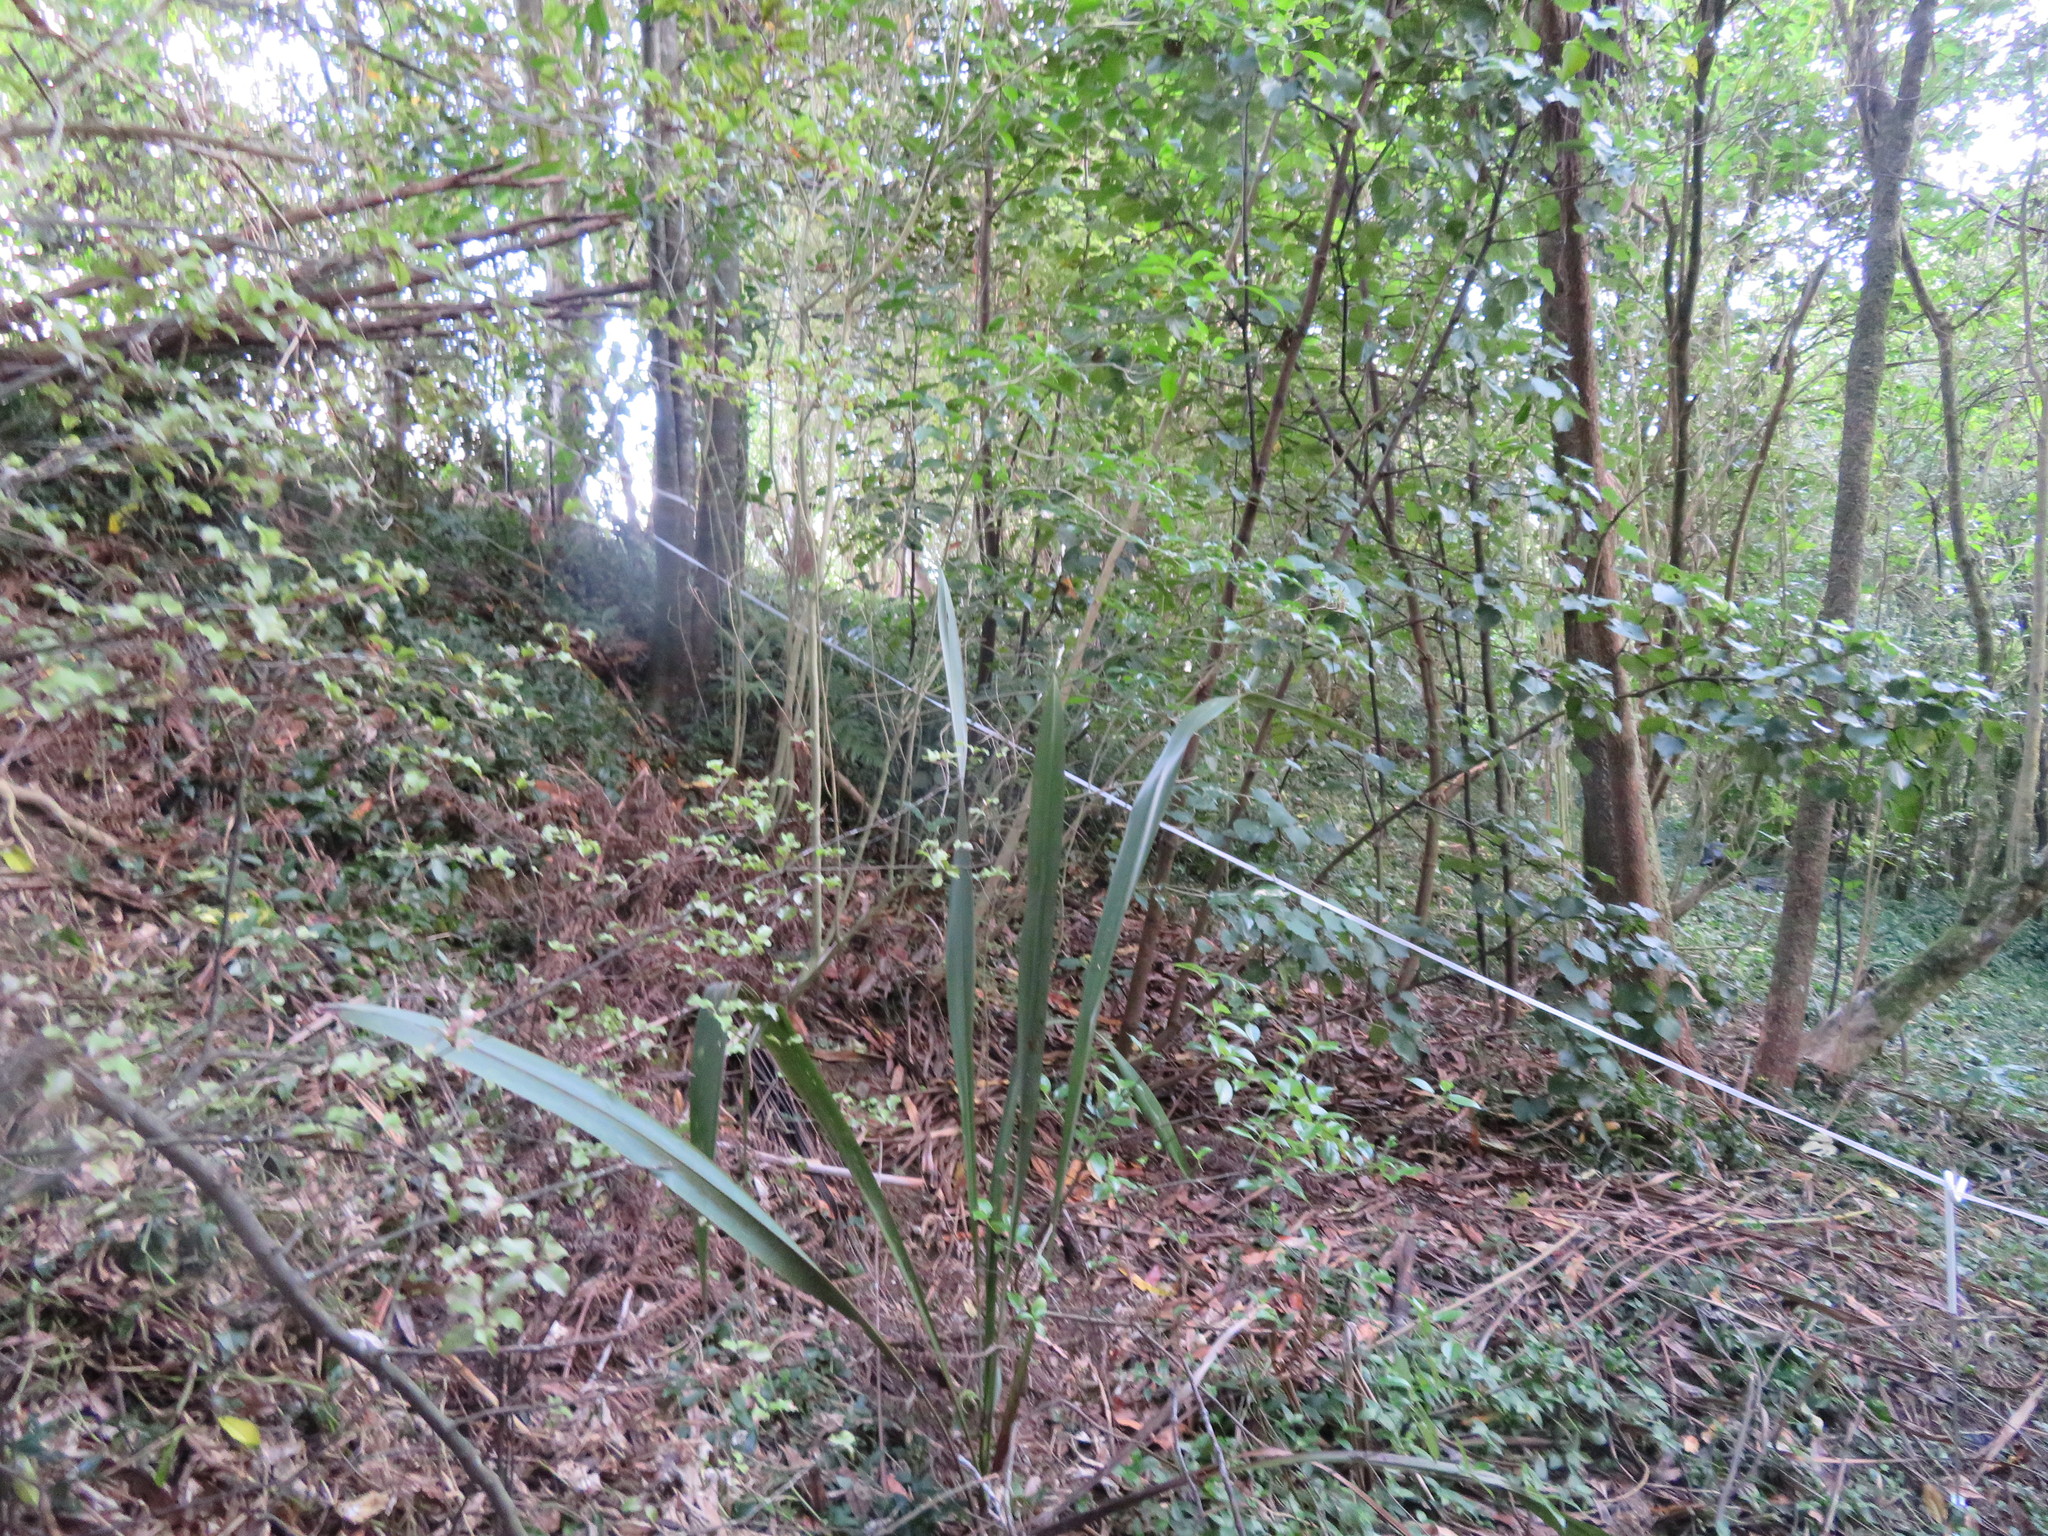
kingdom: Plantae
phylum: Tracheophyta
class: Magnoliopsida
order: Ericales
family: Primulaceae
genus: Myrsine
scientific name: Myrsine australis
